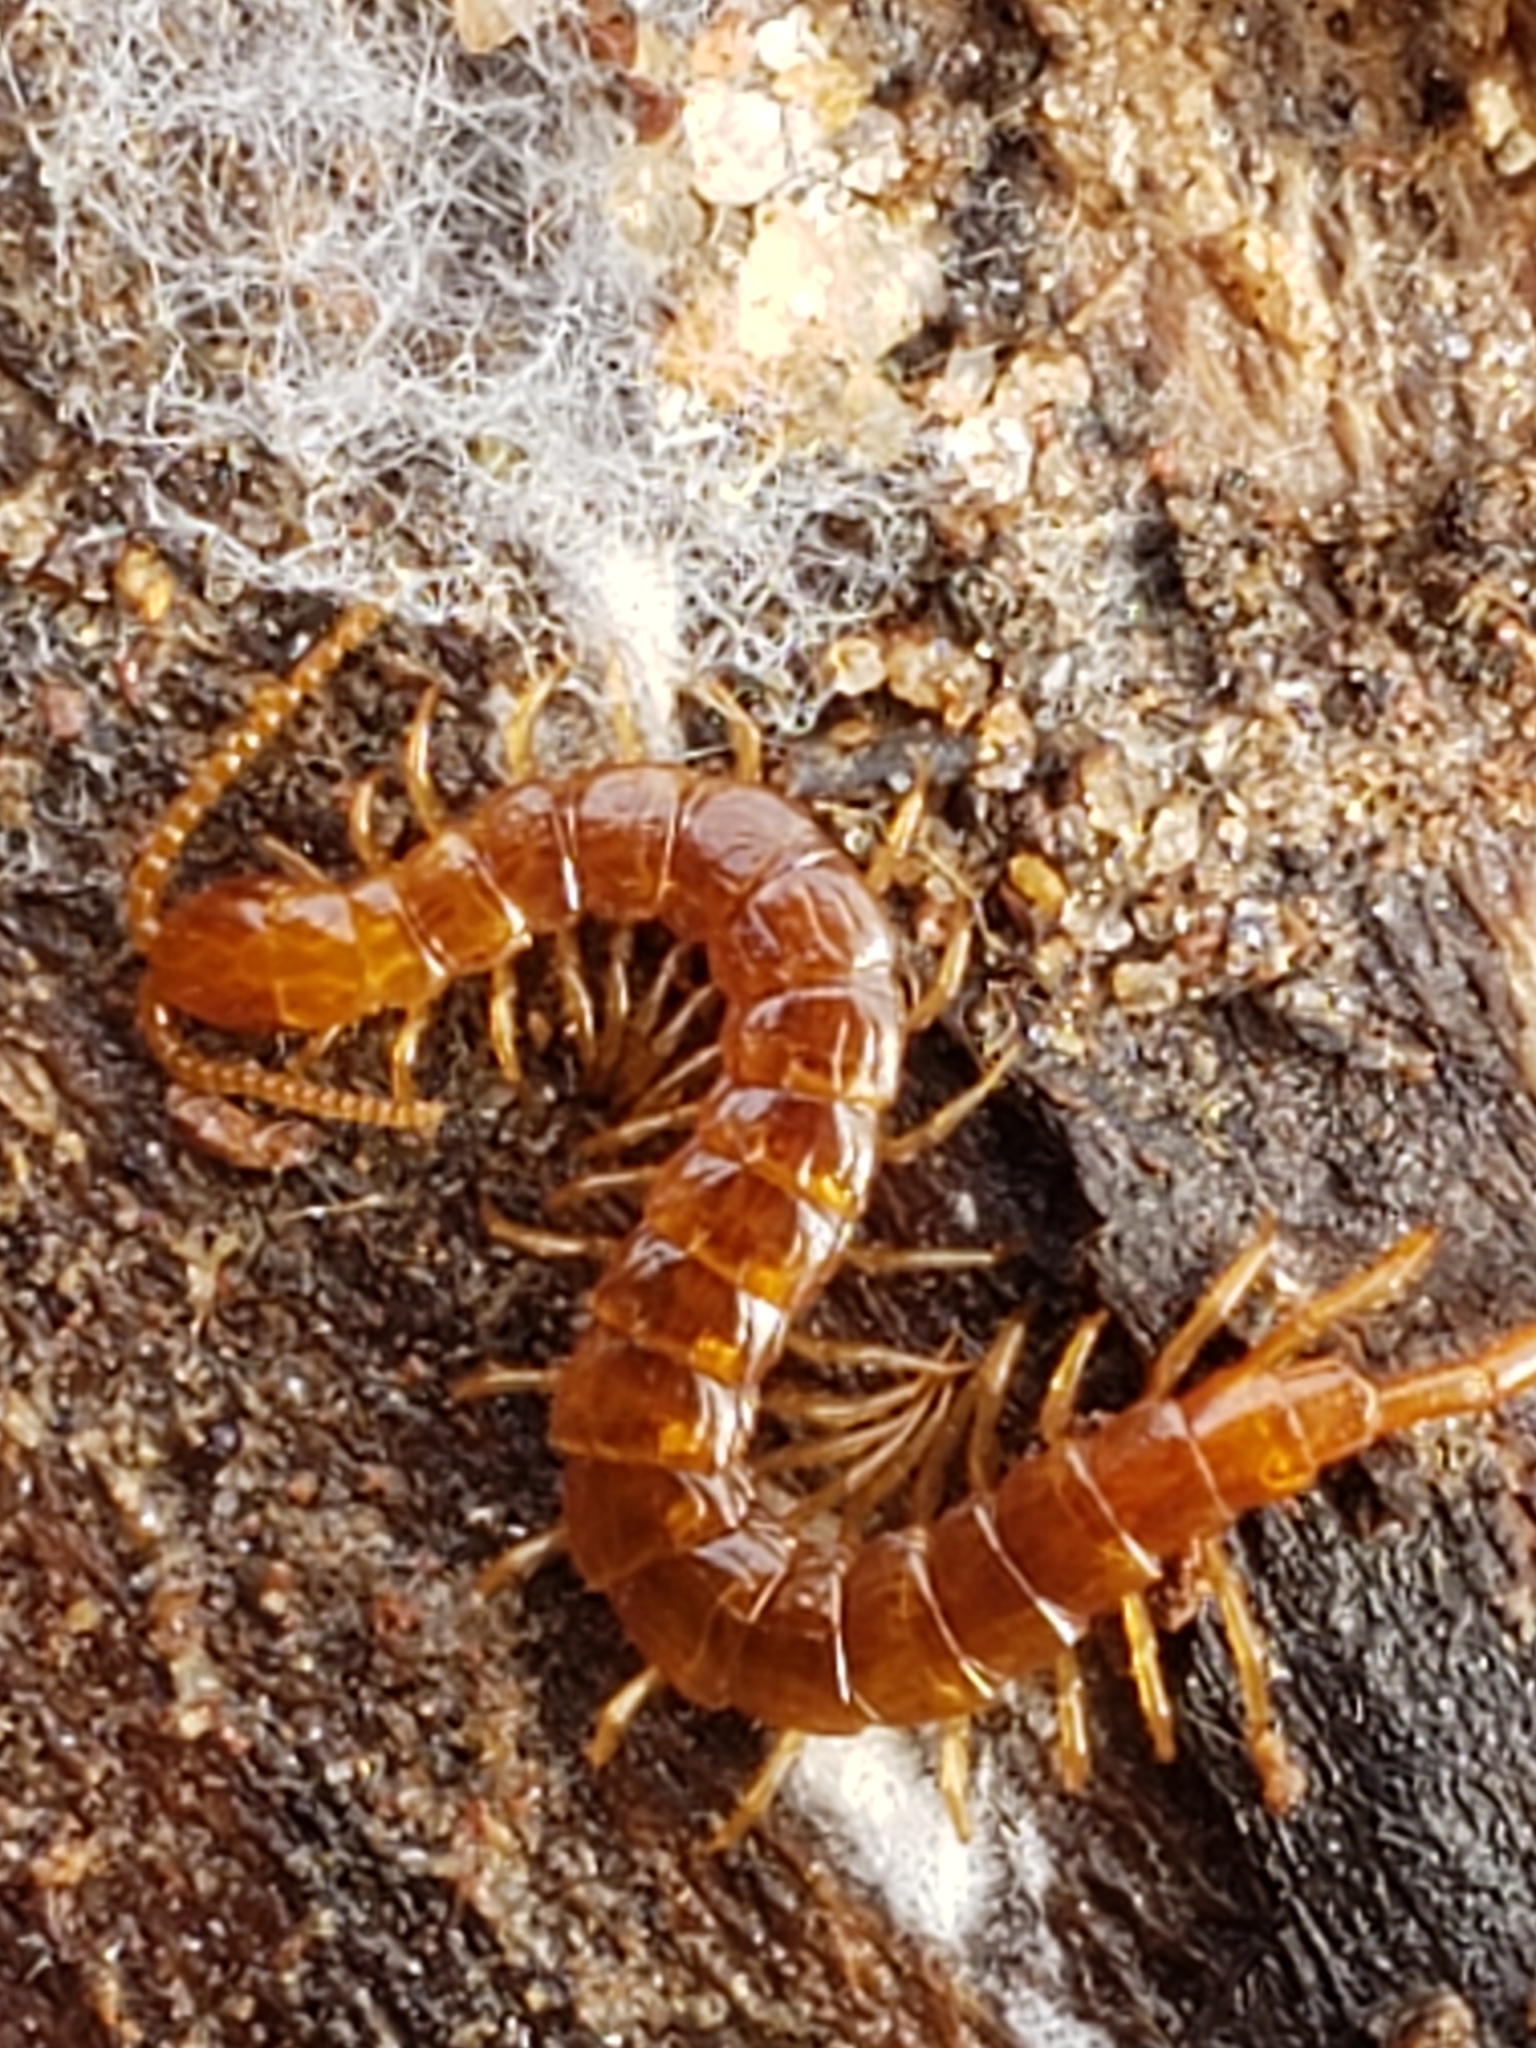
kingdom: Animalia
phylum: Arthropoda
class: Chilopoda
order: Scolopendromorpha
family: Cryptopidae
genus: Cryptops
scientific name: Cryptops hortensis
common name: Centipede
